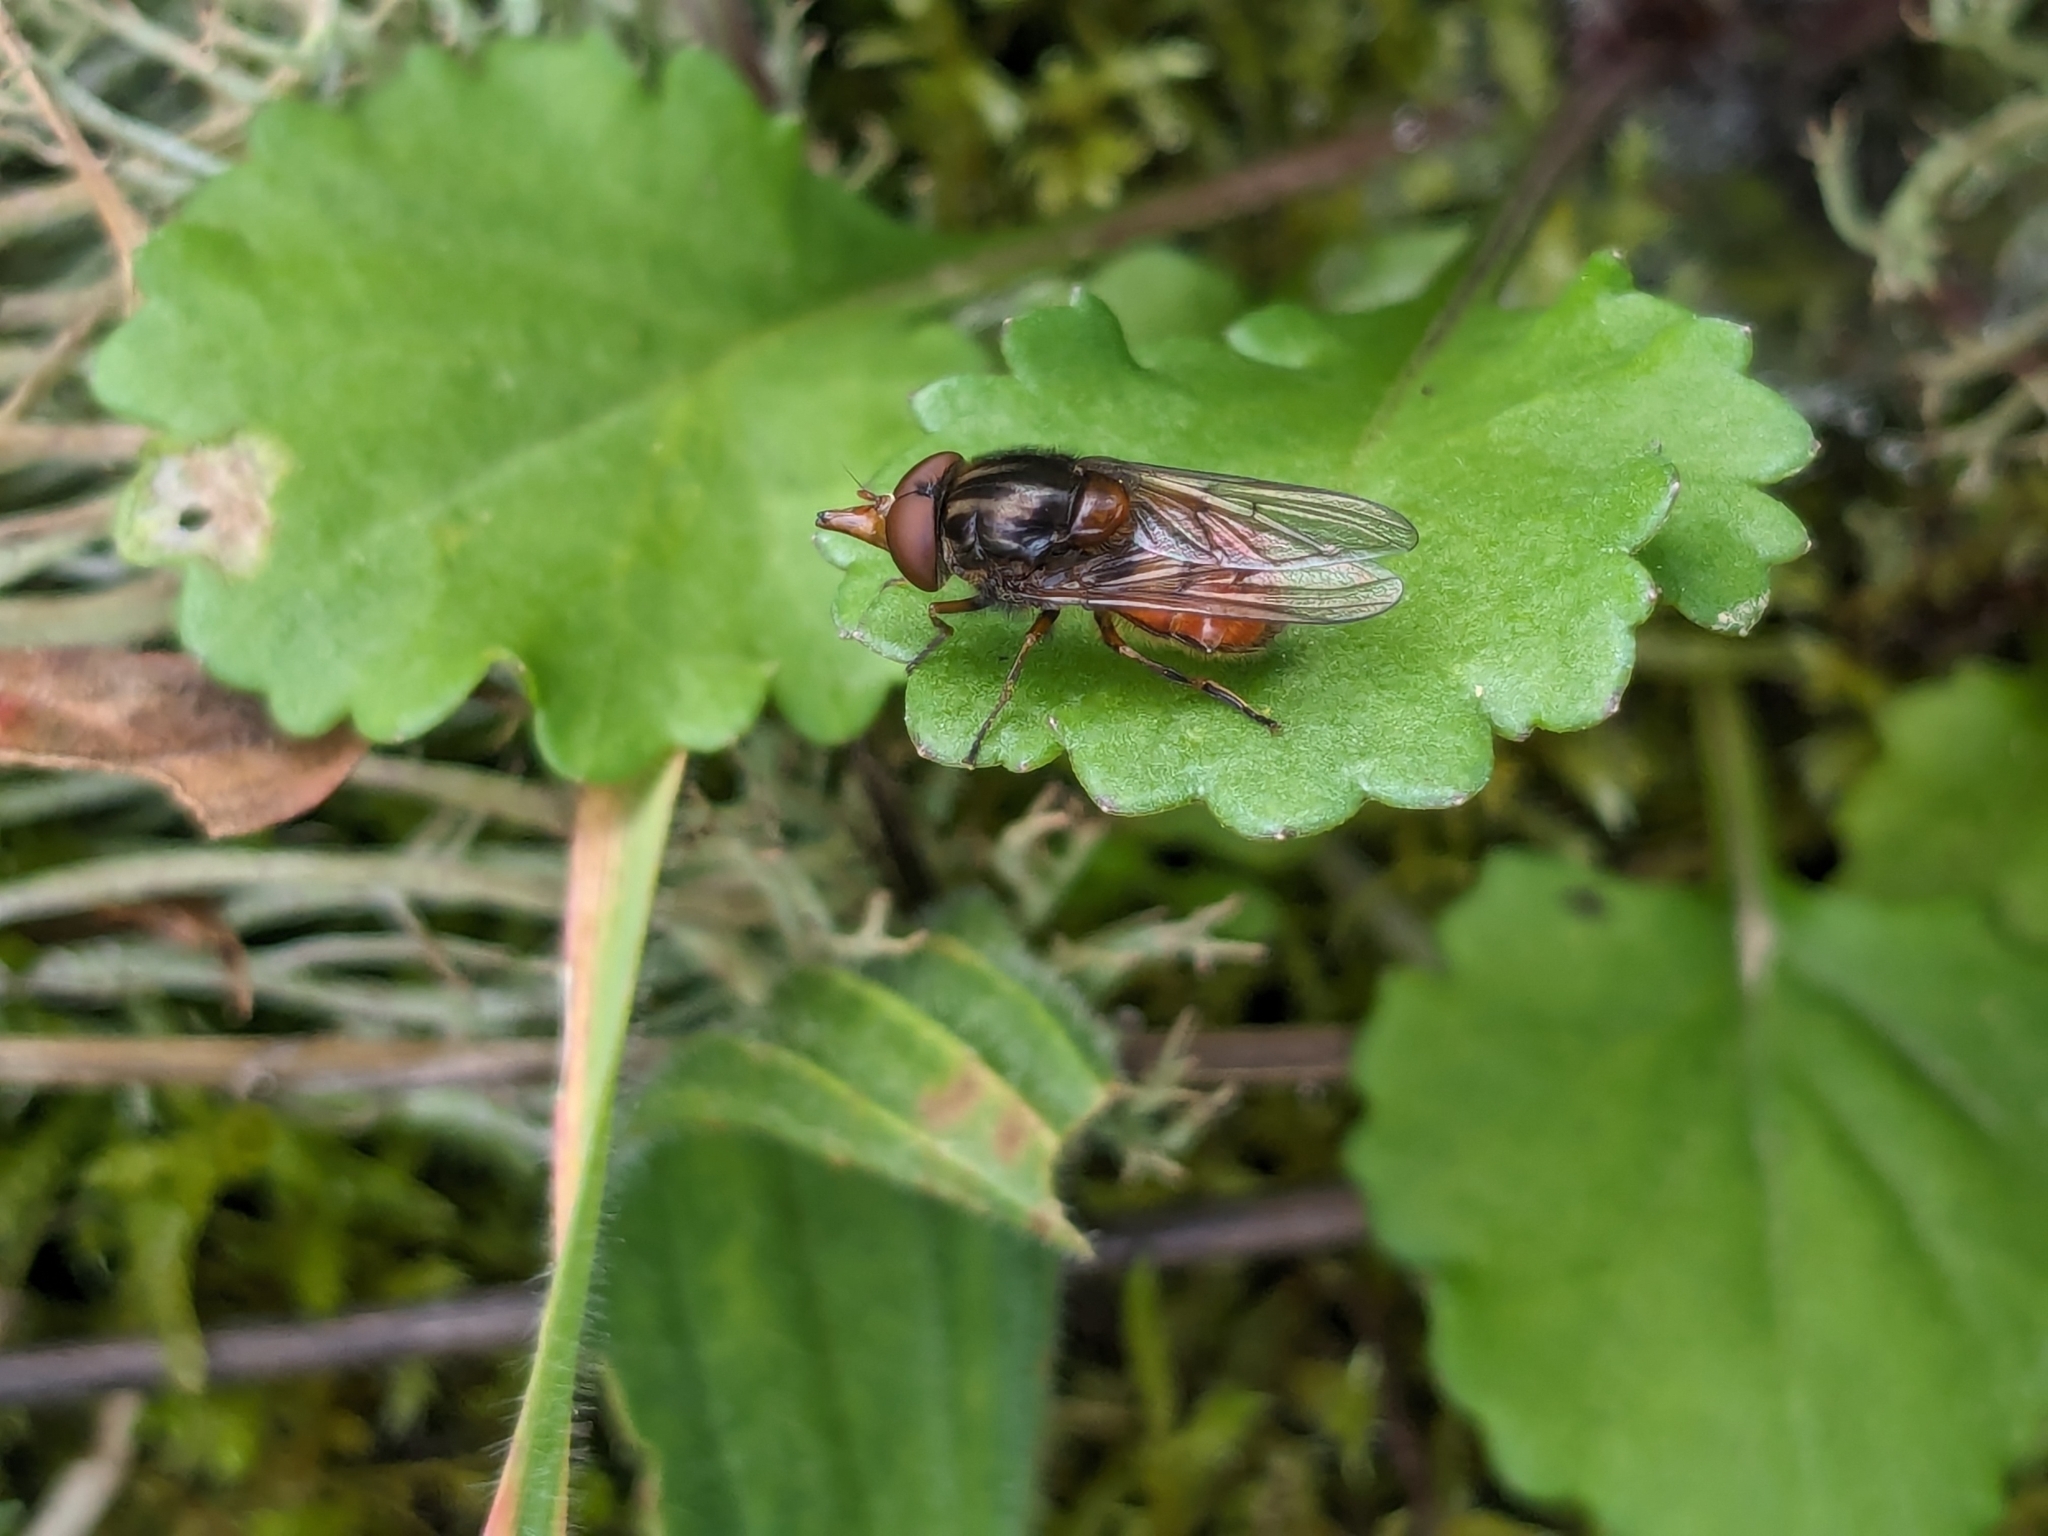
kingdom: Animalia
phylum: Arthropoda
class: Insecta
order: Diptera
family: Syrphidae
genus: Rhingia
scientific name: Rhingia campestris
